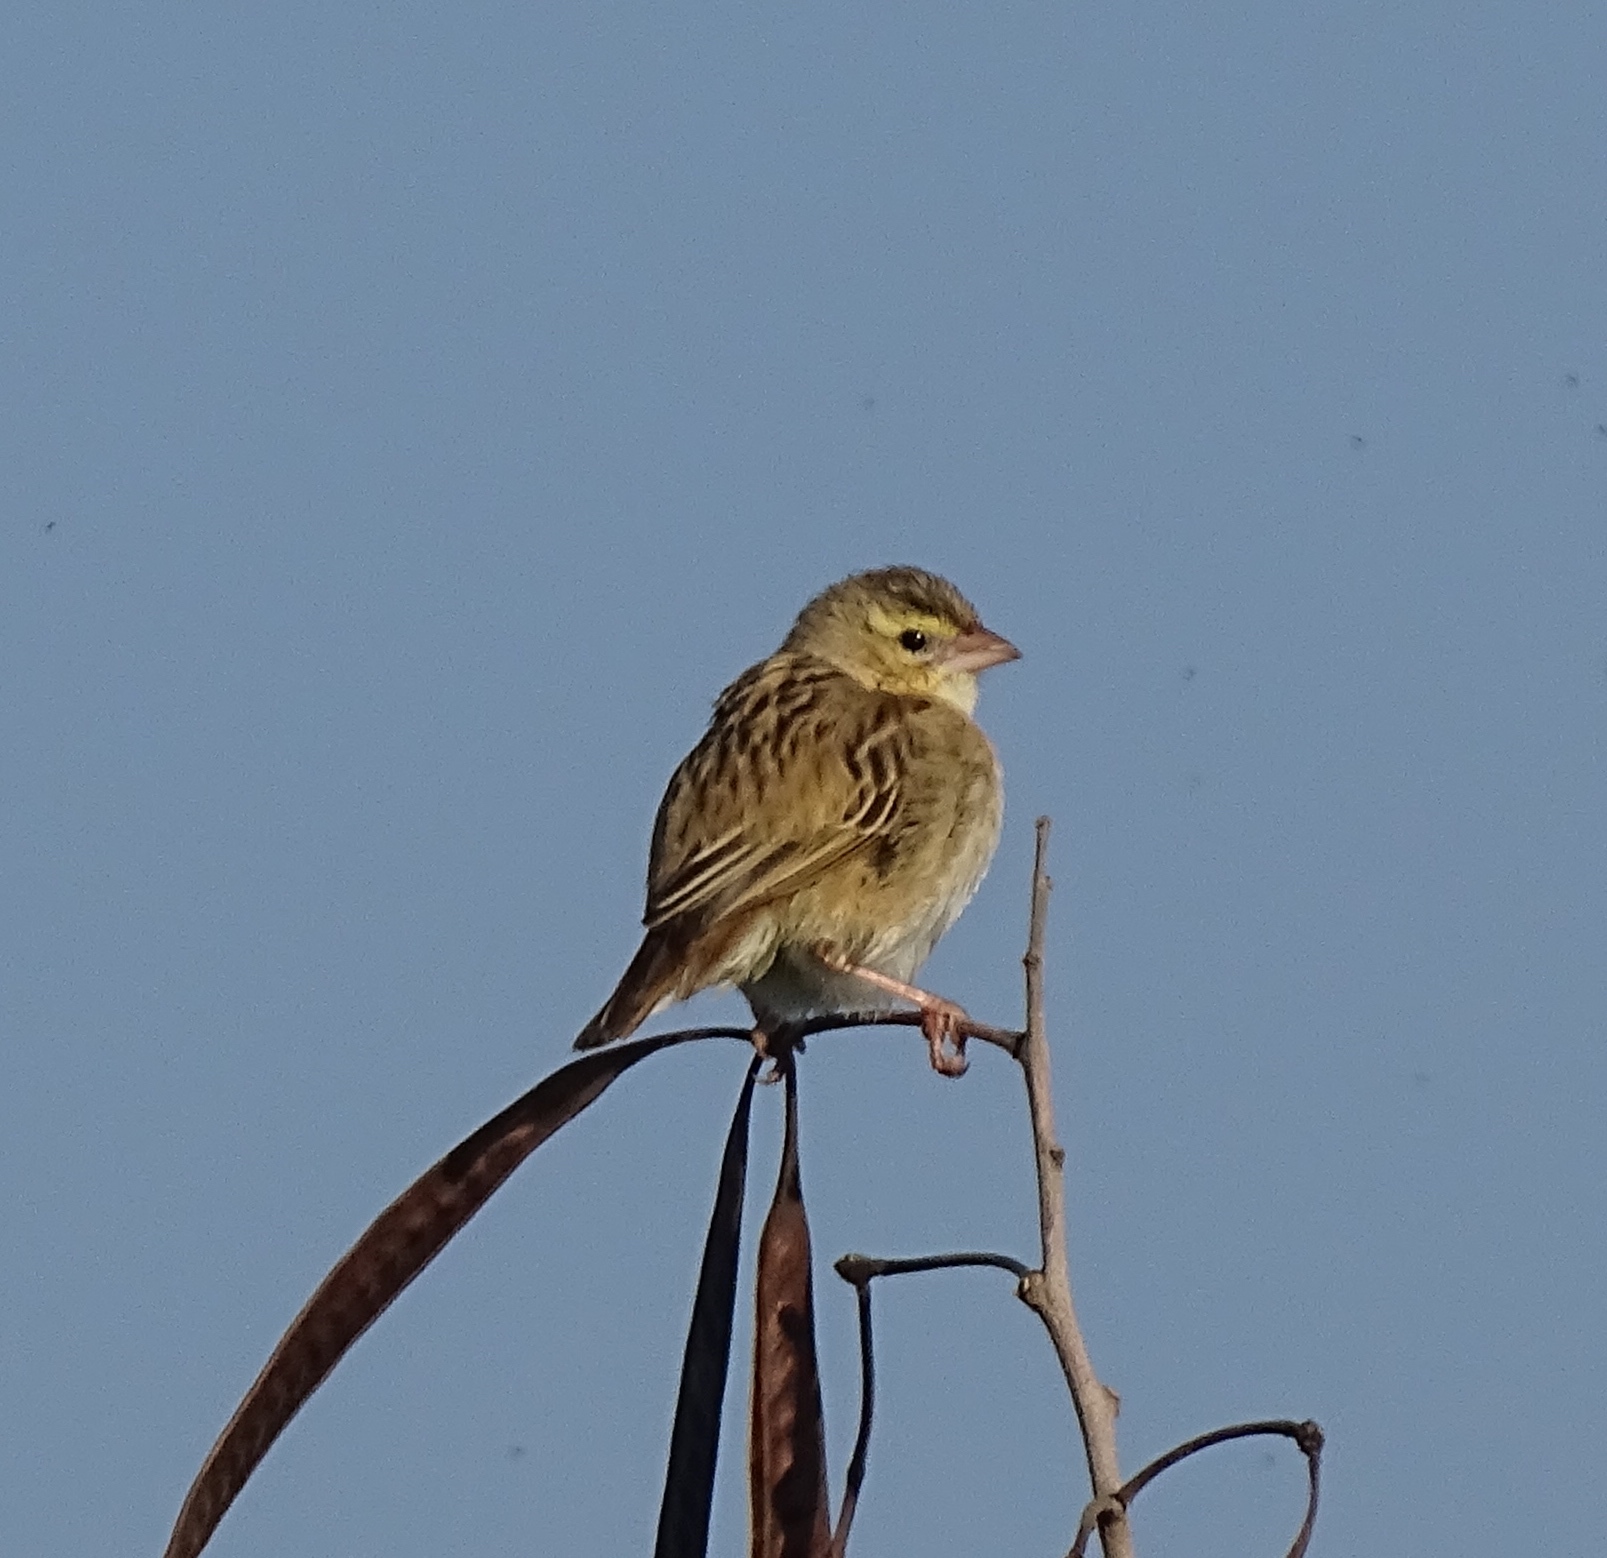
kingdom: Animalia
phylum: Chordata
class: Aves
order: Passeriformes
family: Ploceidae
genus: Euplectes
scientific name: Euplectes franciscanus
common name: Northern red bishop
